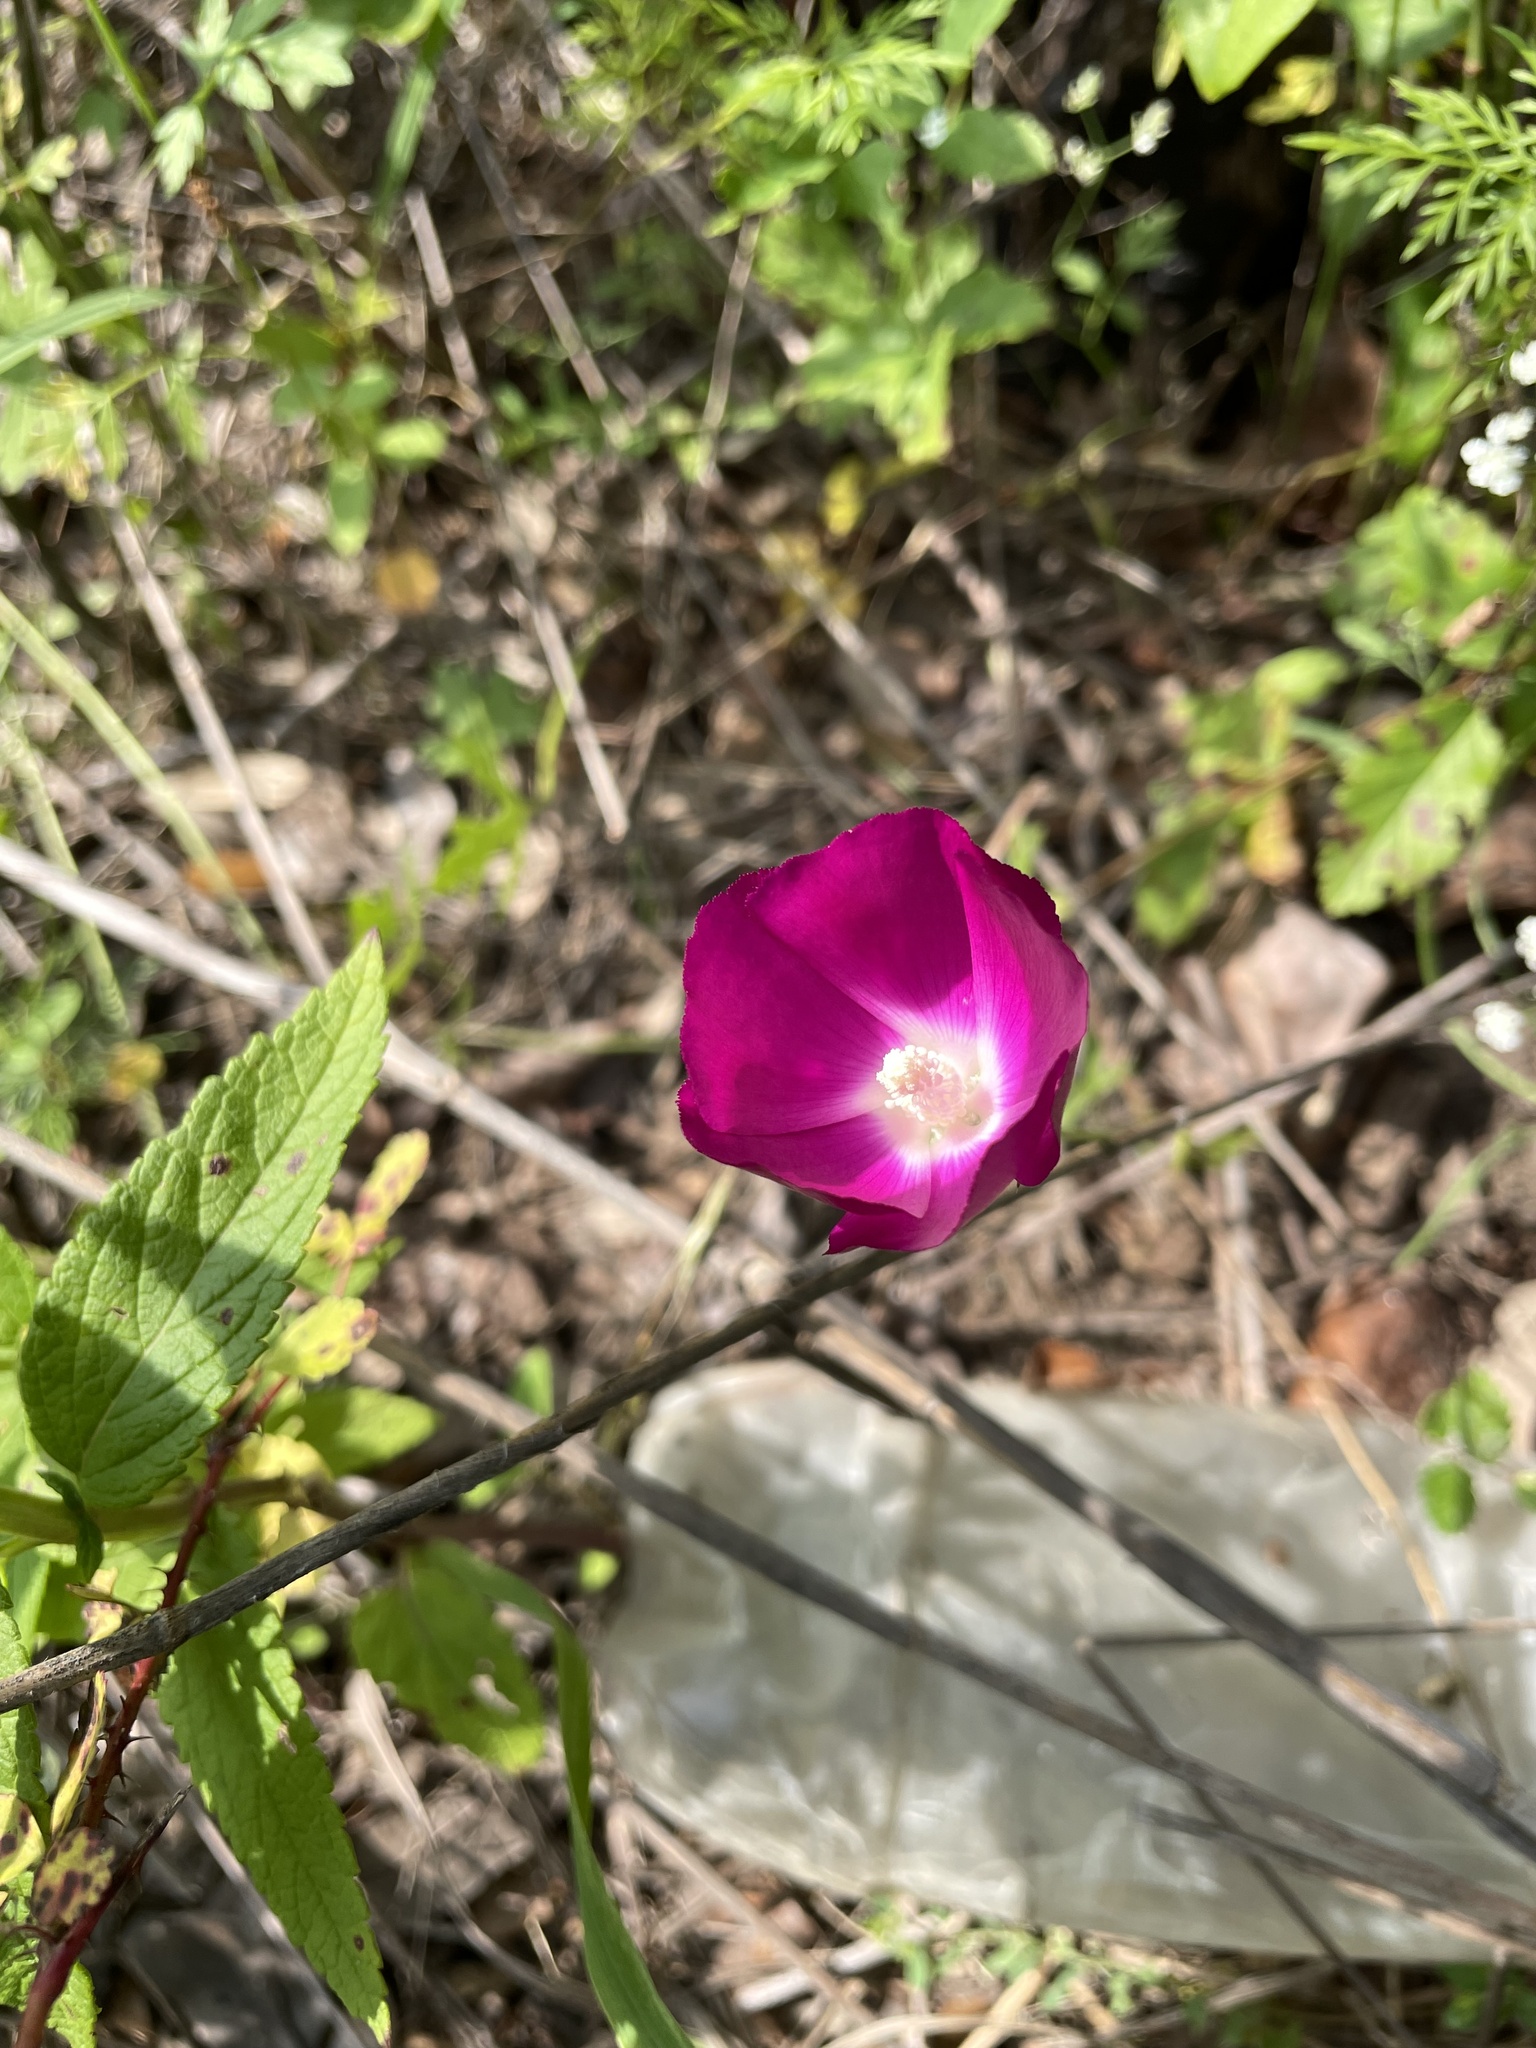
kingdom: Plantae
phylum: Tracheophyta
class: Magnoliopsida
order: Malvales
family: Malvaceae
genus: Callirhoe
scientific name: Callirhoe involucrata
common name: Purple poppy-mallow
